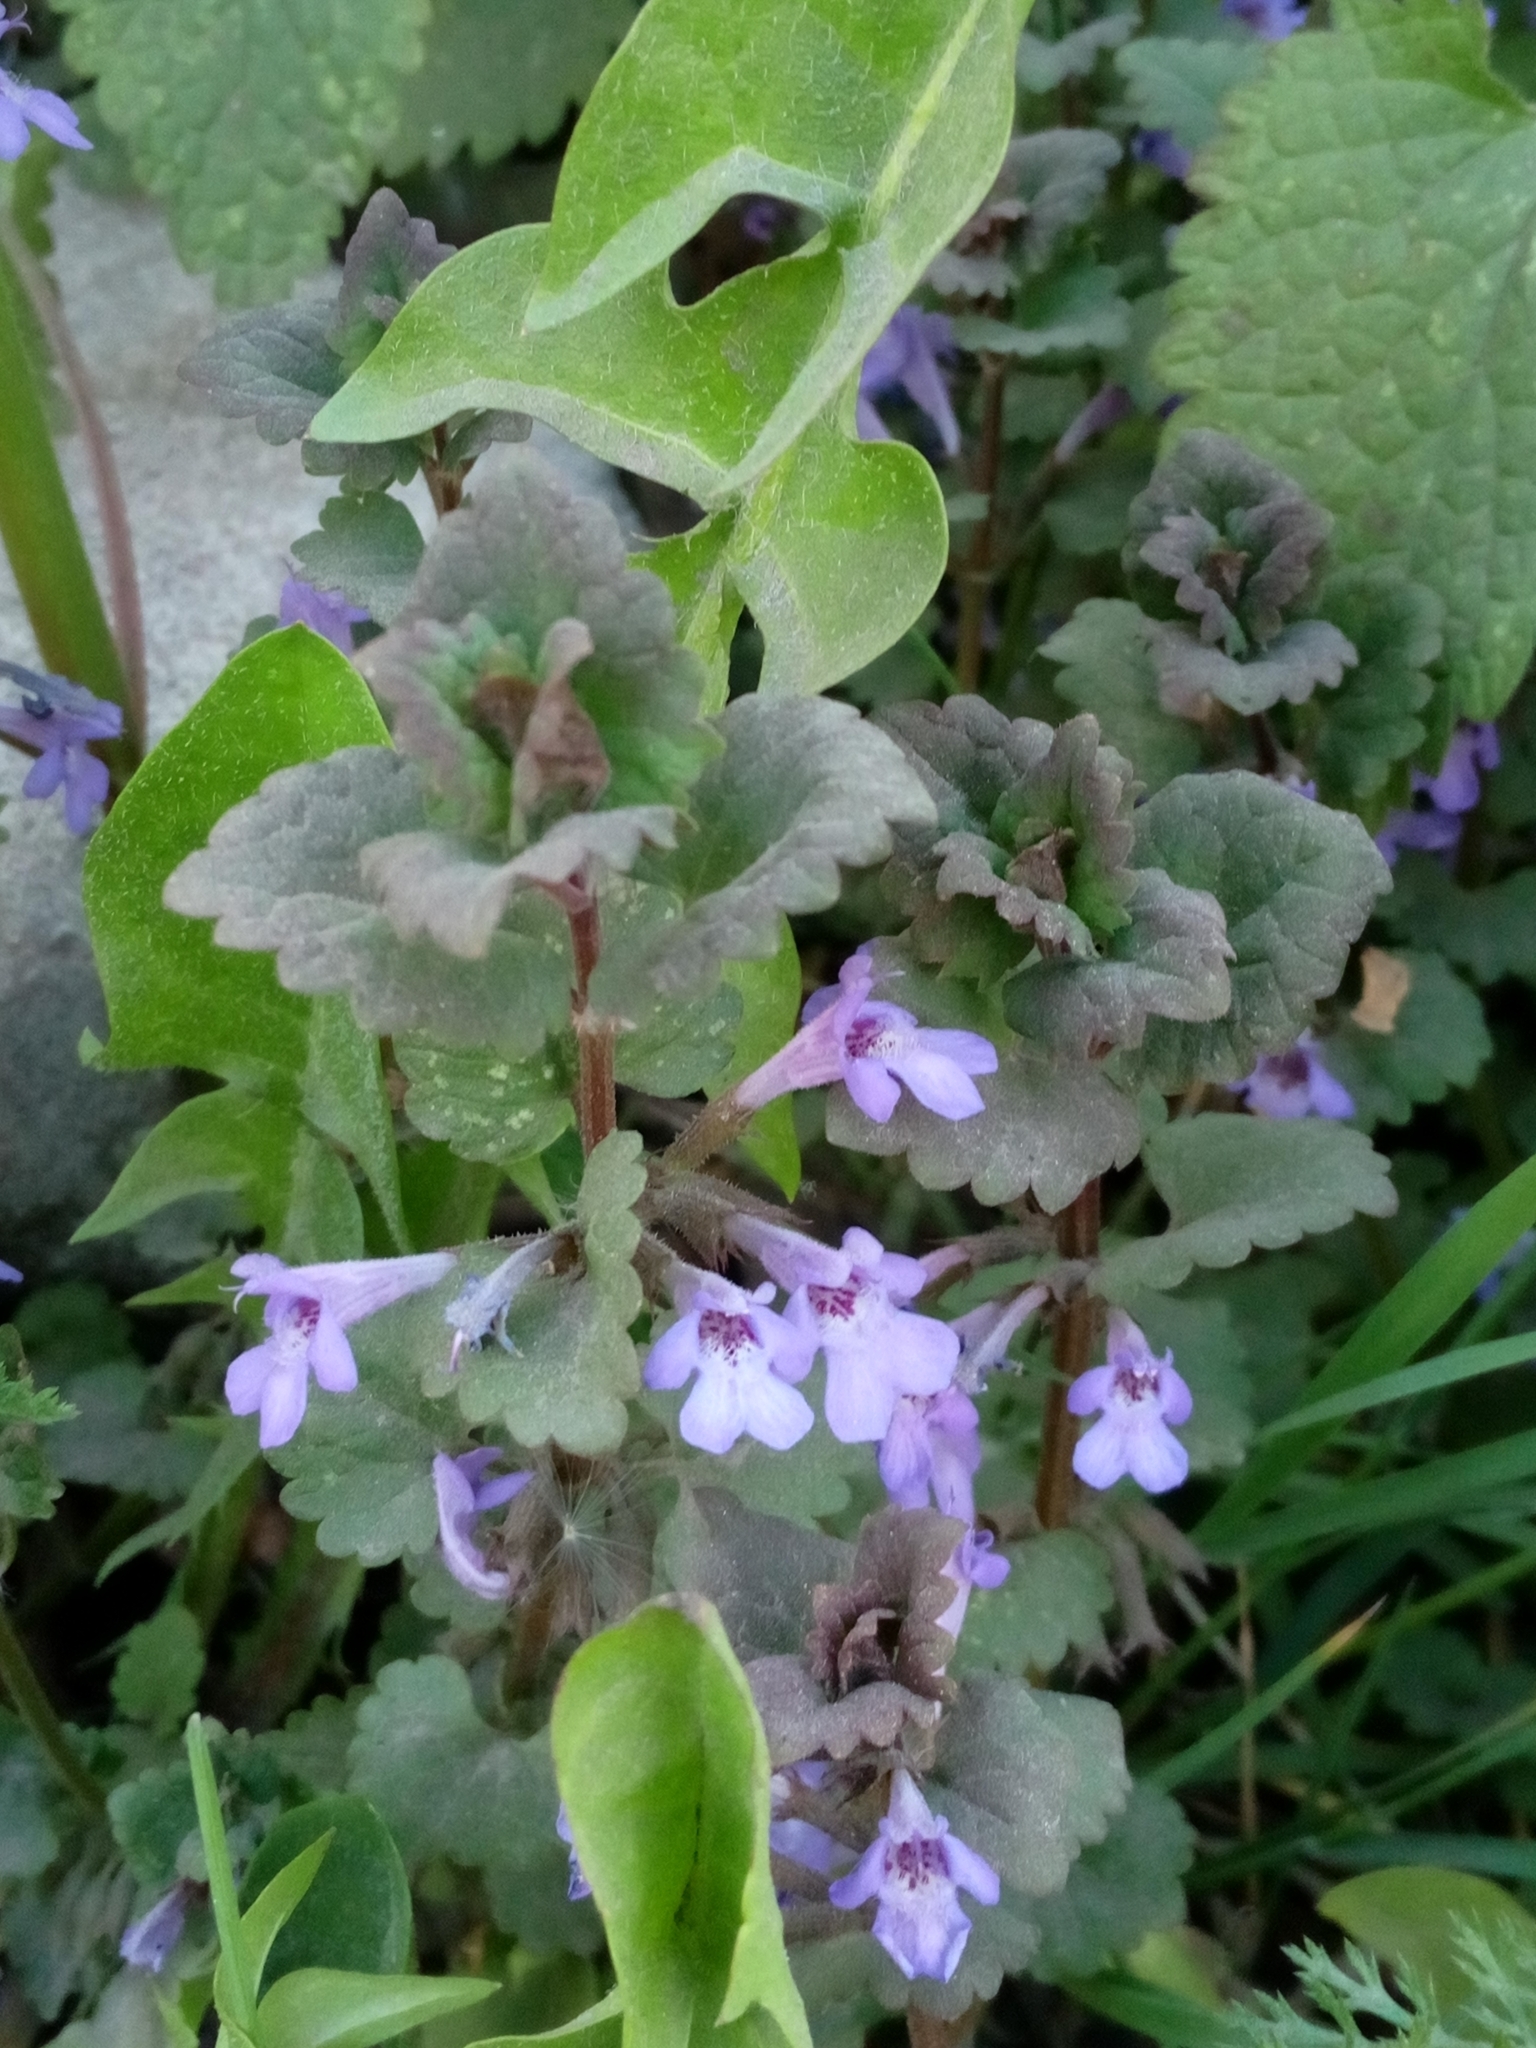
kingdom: Plantae
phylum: Tracheophyta
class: Magnoliopsida
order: Lamiales
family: Lamiaceae
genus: Glechoma
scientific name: Glechoma hederacea
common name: Ground ivy
